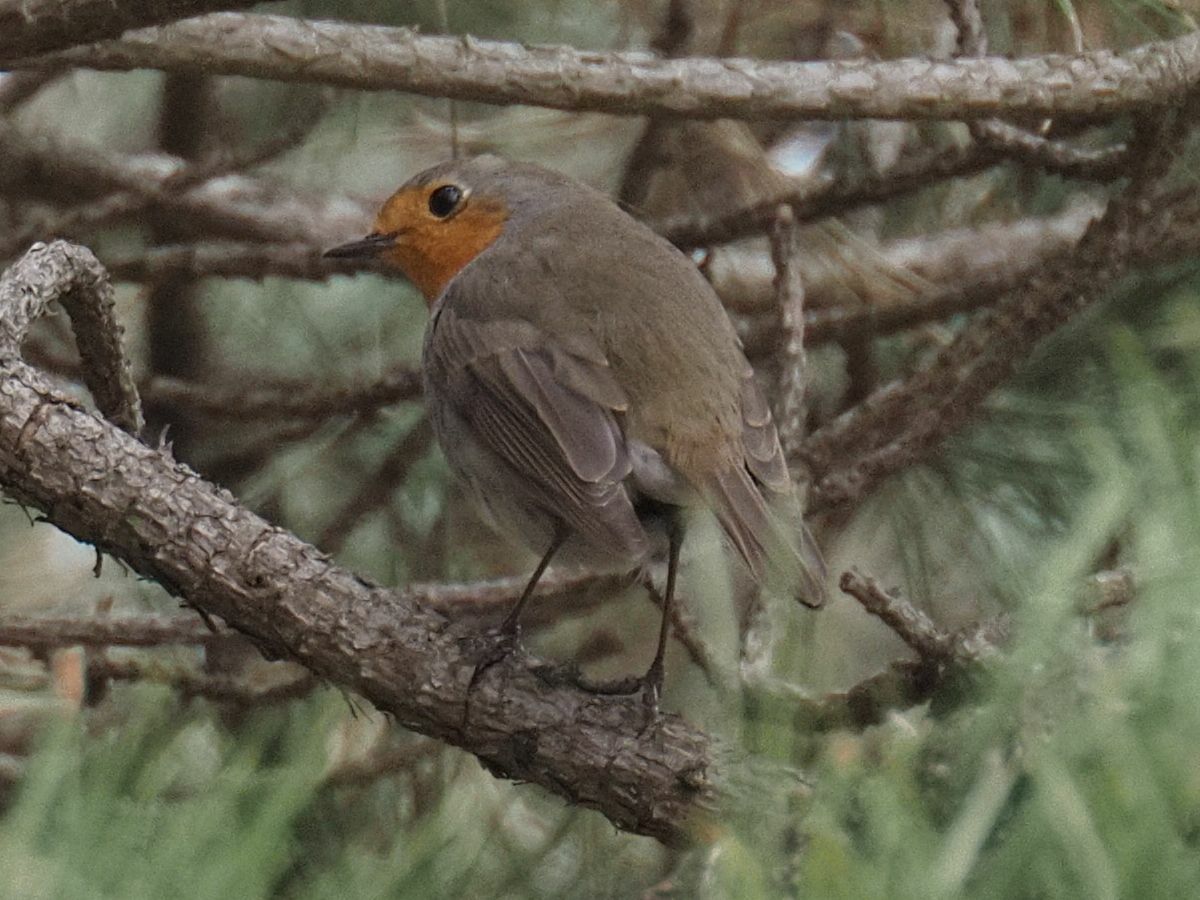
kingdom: Animalia
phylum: Chordata
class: Aves
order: Passeriformes
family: Muscicapidae
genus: Erithacus
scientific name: Erithacus rubecula
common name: European robin
